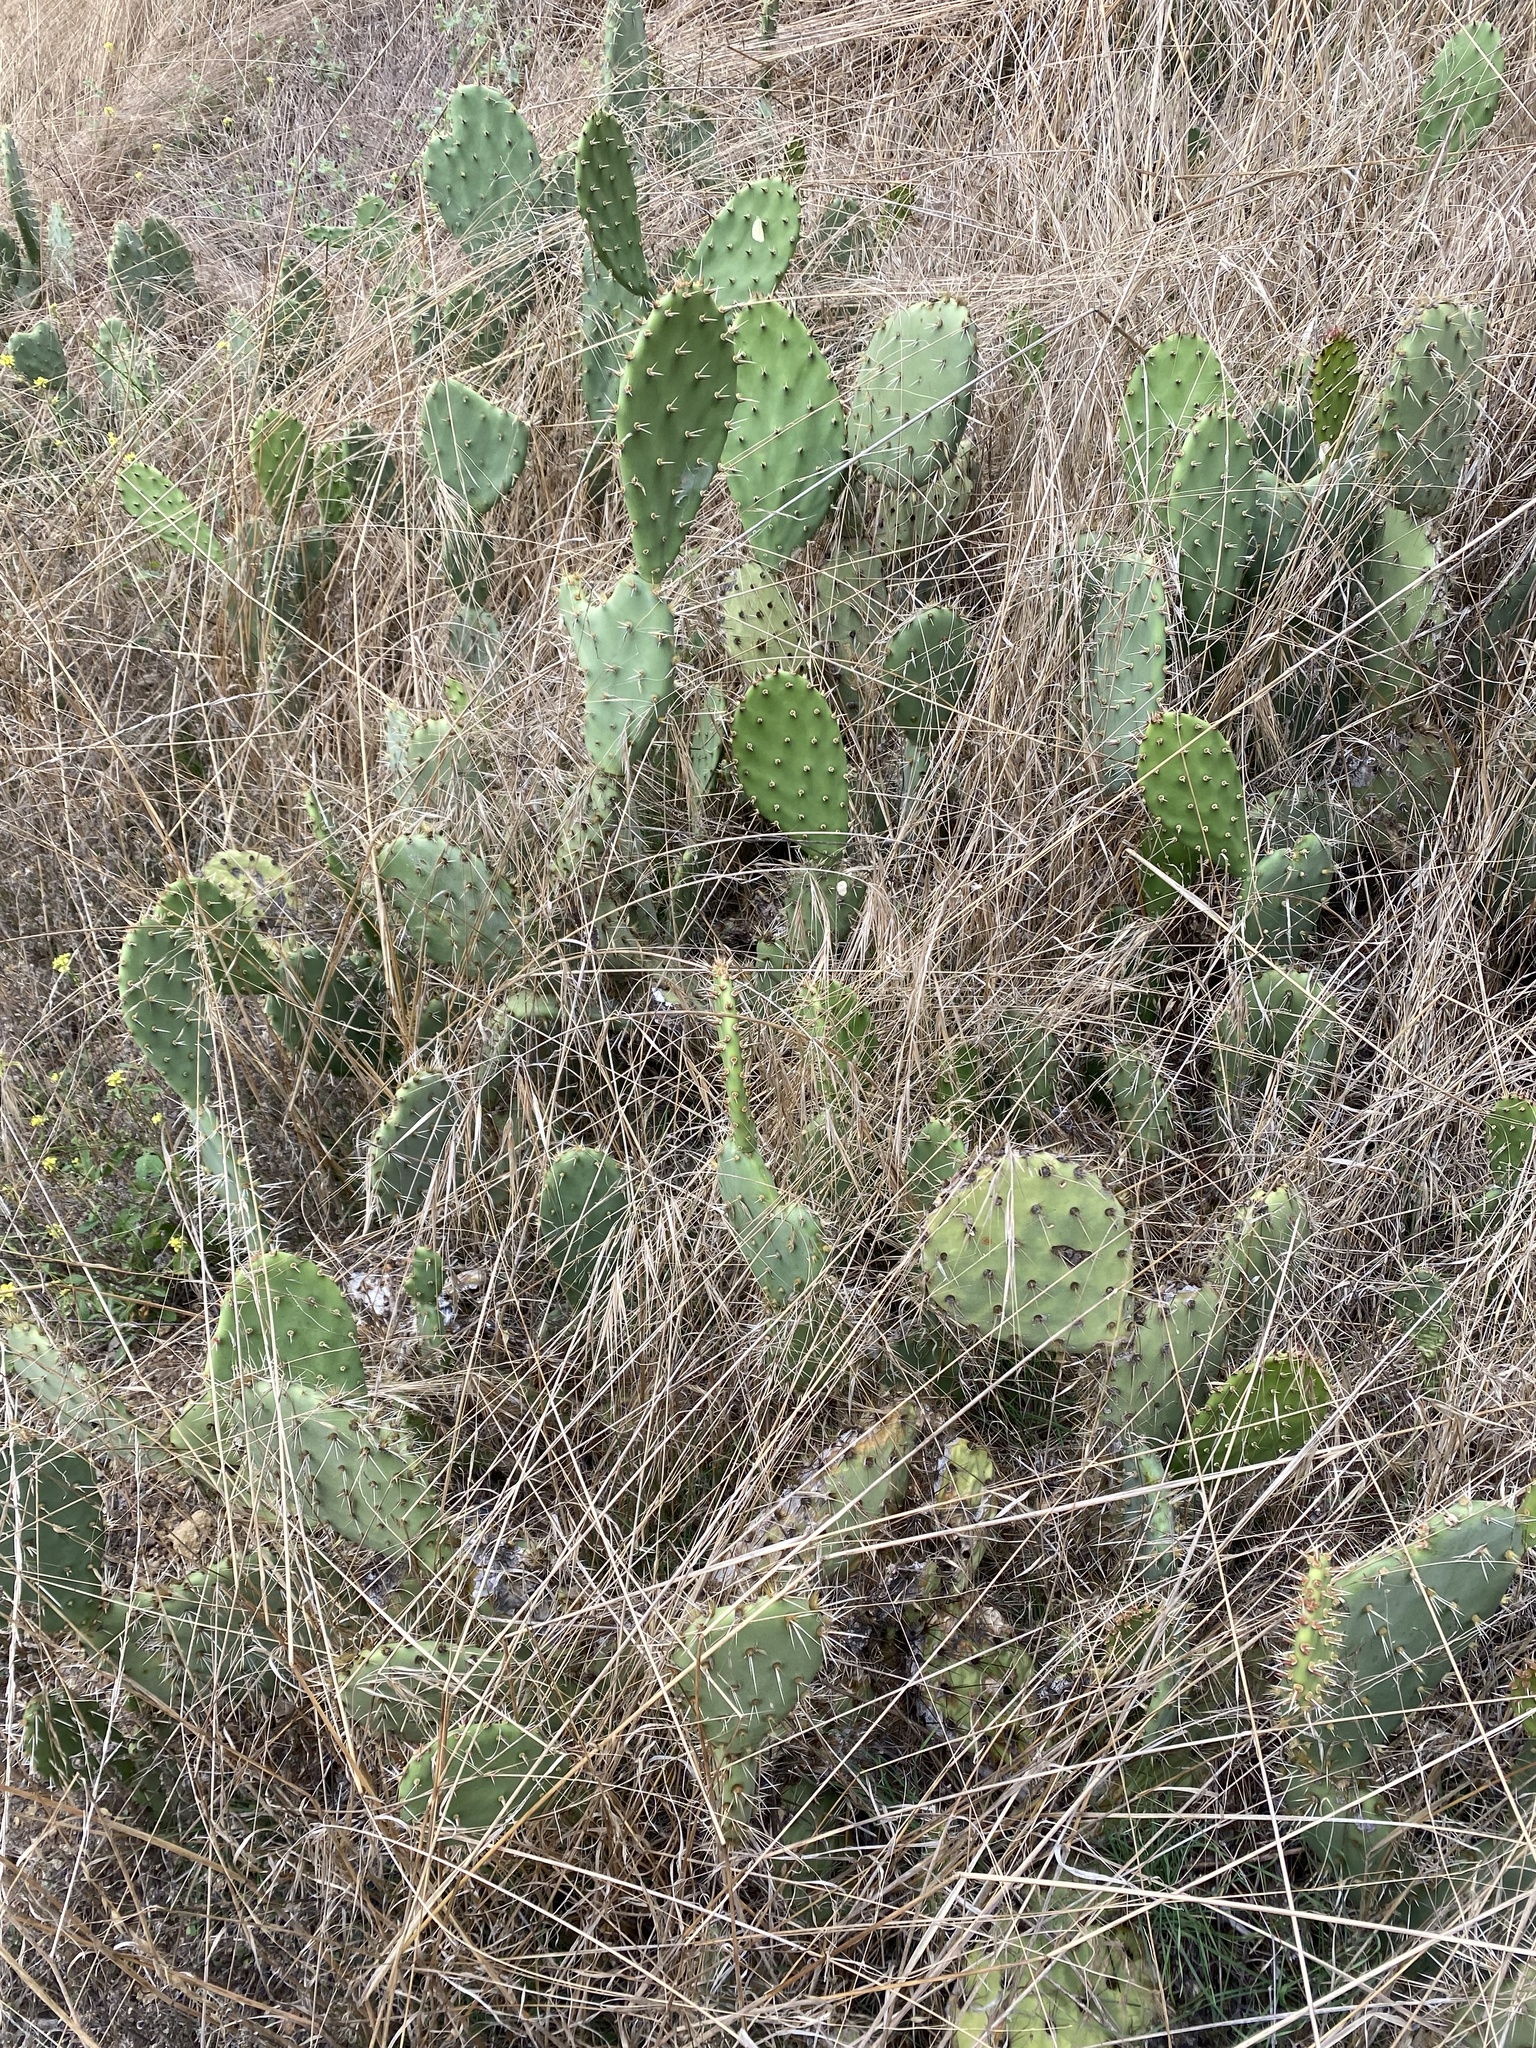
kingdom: Plantae
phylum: Tracheophyta
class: Magnoliopsida
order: Caryophyllales
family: Cactaceae
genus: Opuntia
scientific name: Opuntia littoralis
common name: Coastal prickly-pear
